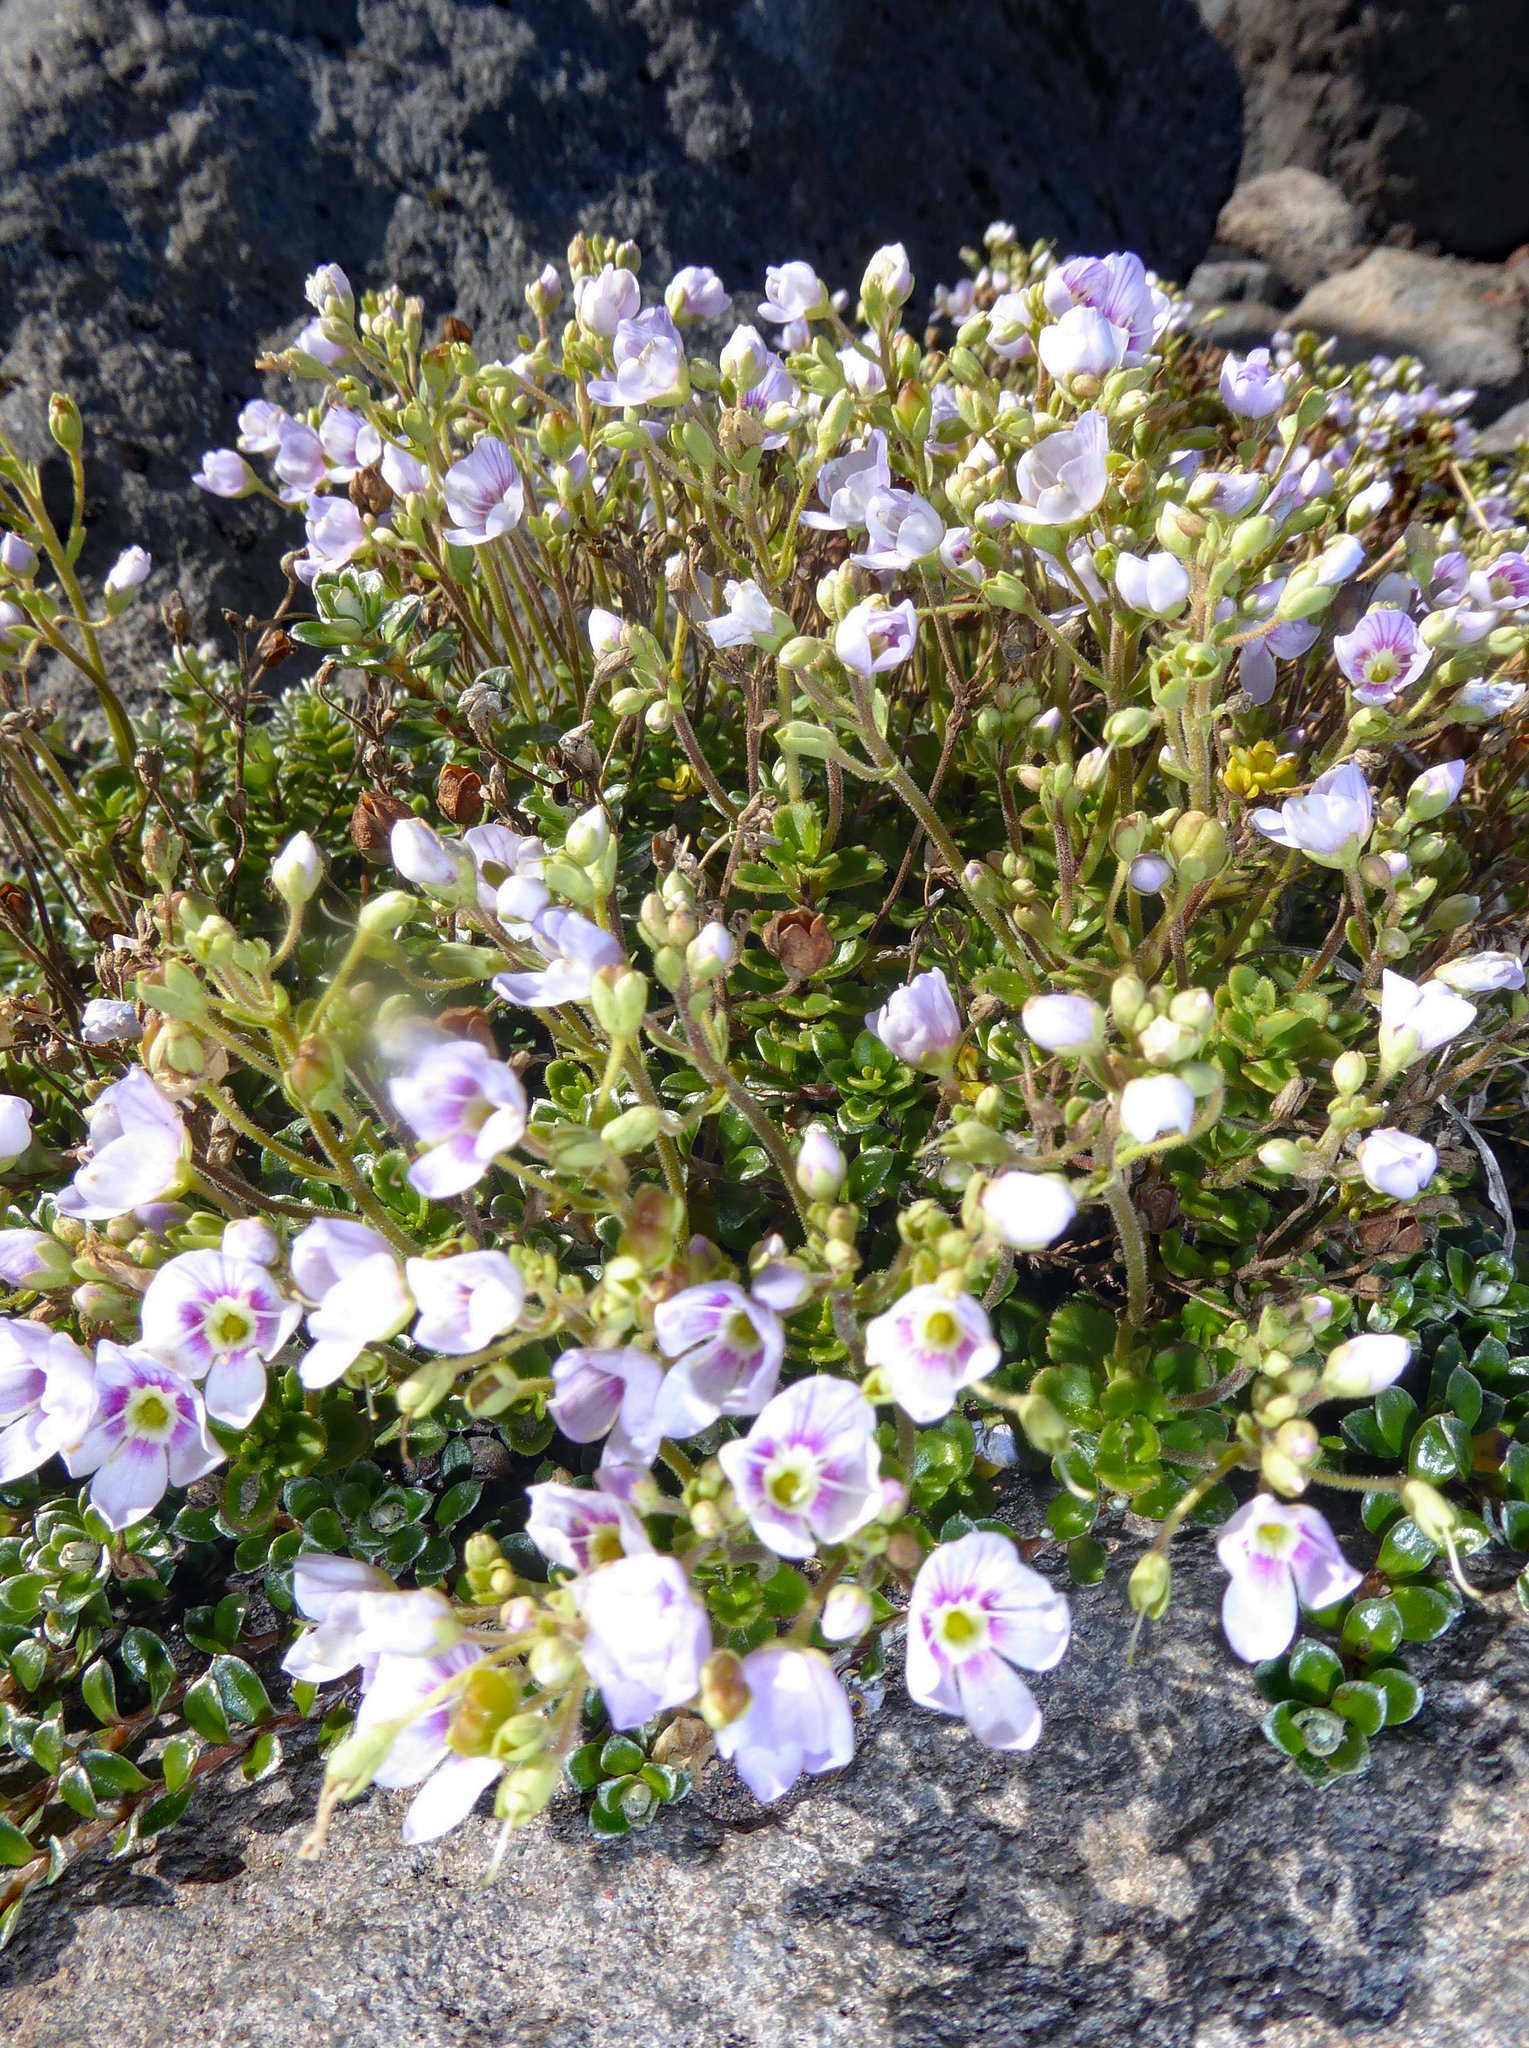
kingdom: Plantae
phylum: Tracheophyta
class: Magnoliopsida
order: Lamiales
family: Plantaginaceae
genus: Veronica
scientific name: Veronica hookeriana
